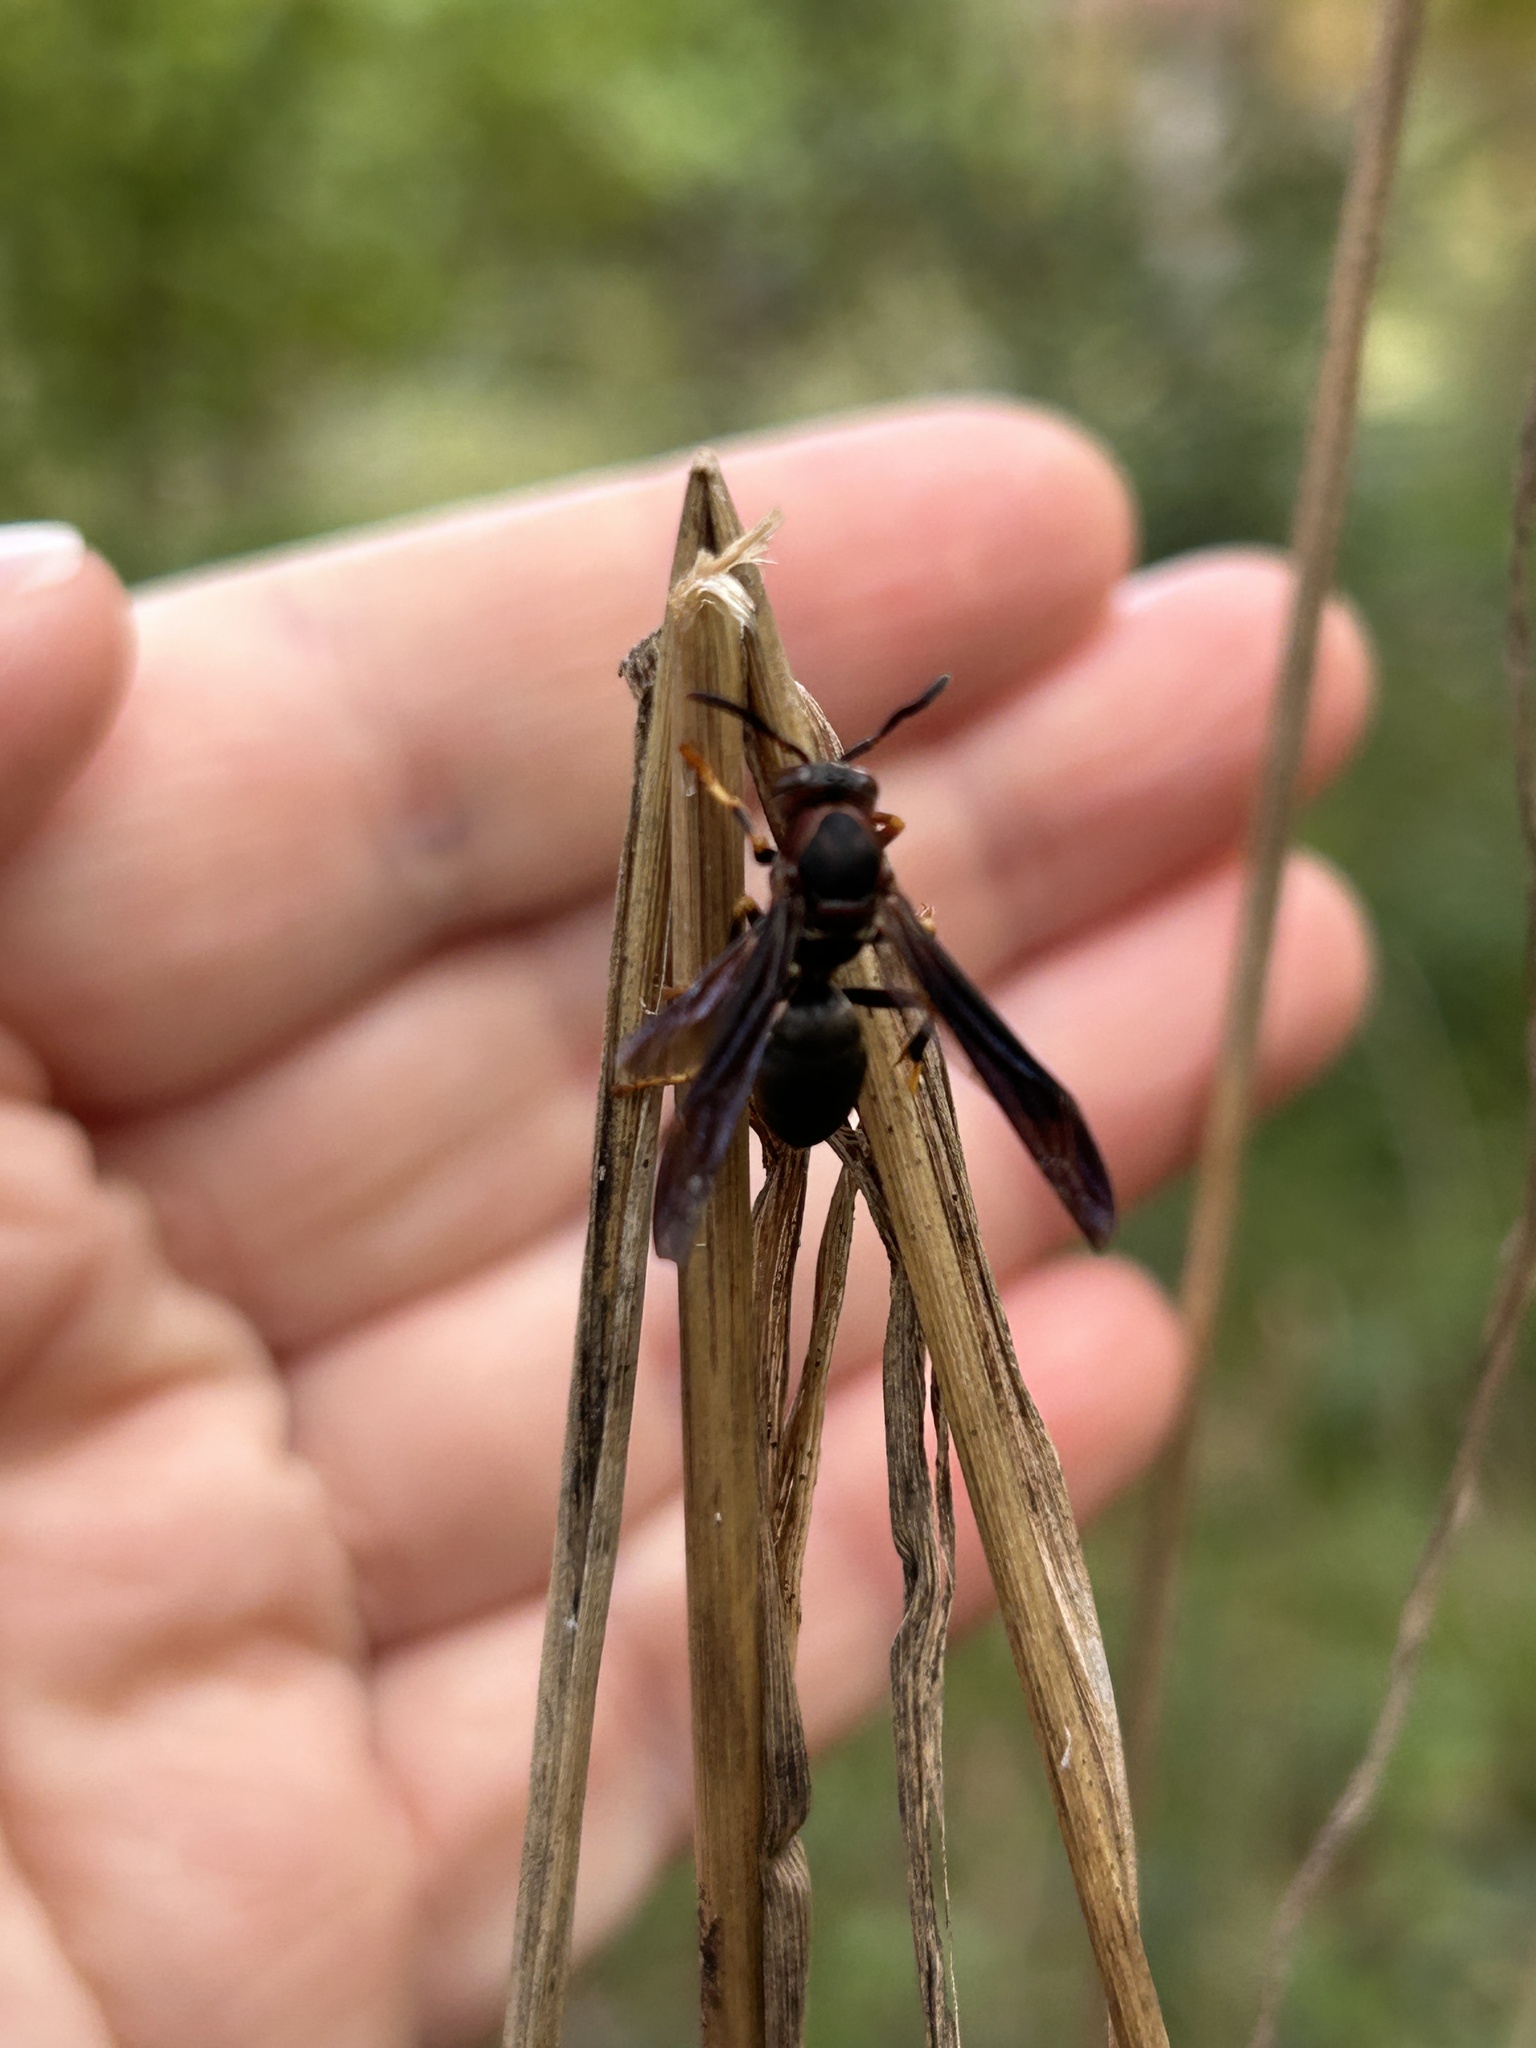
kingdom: Animalia
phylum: Arthropoda
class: Insecta
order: Hymenoptera
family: Eumenidae
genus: Polistes
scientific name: Polistes metricus
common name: Metric paper wasp
